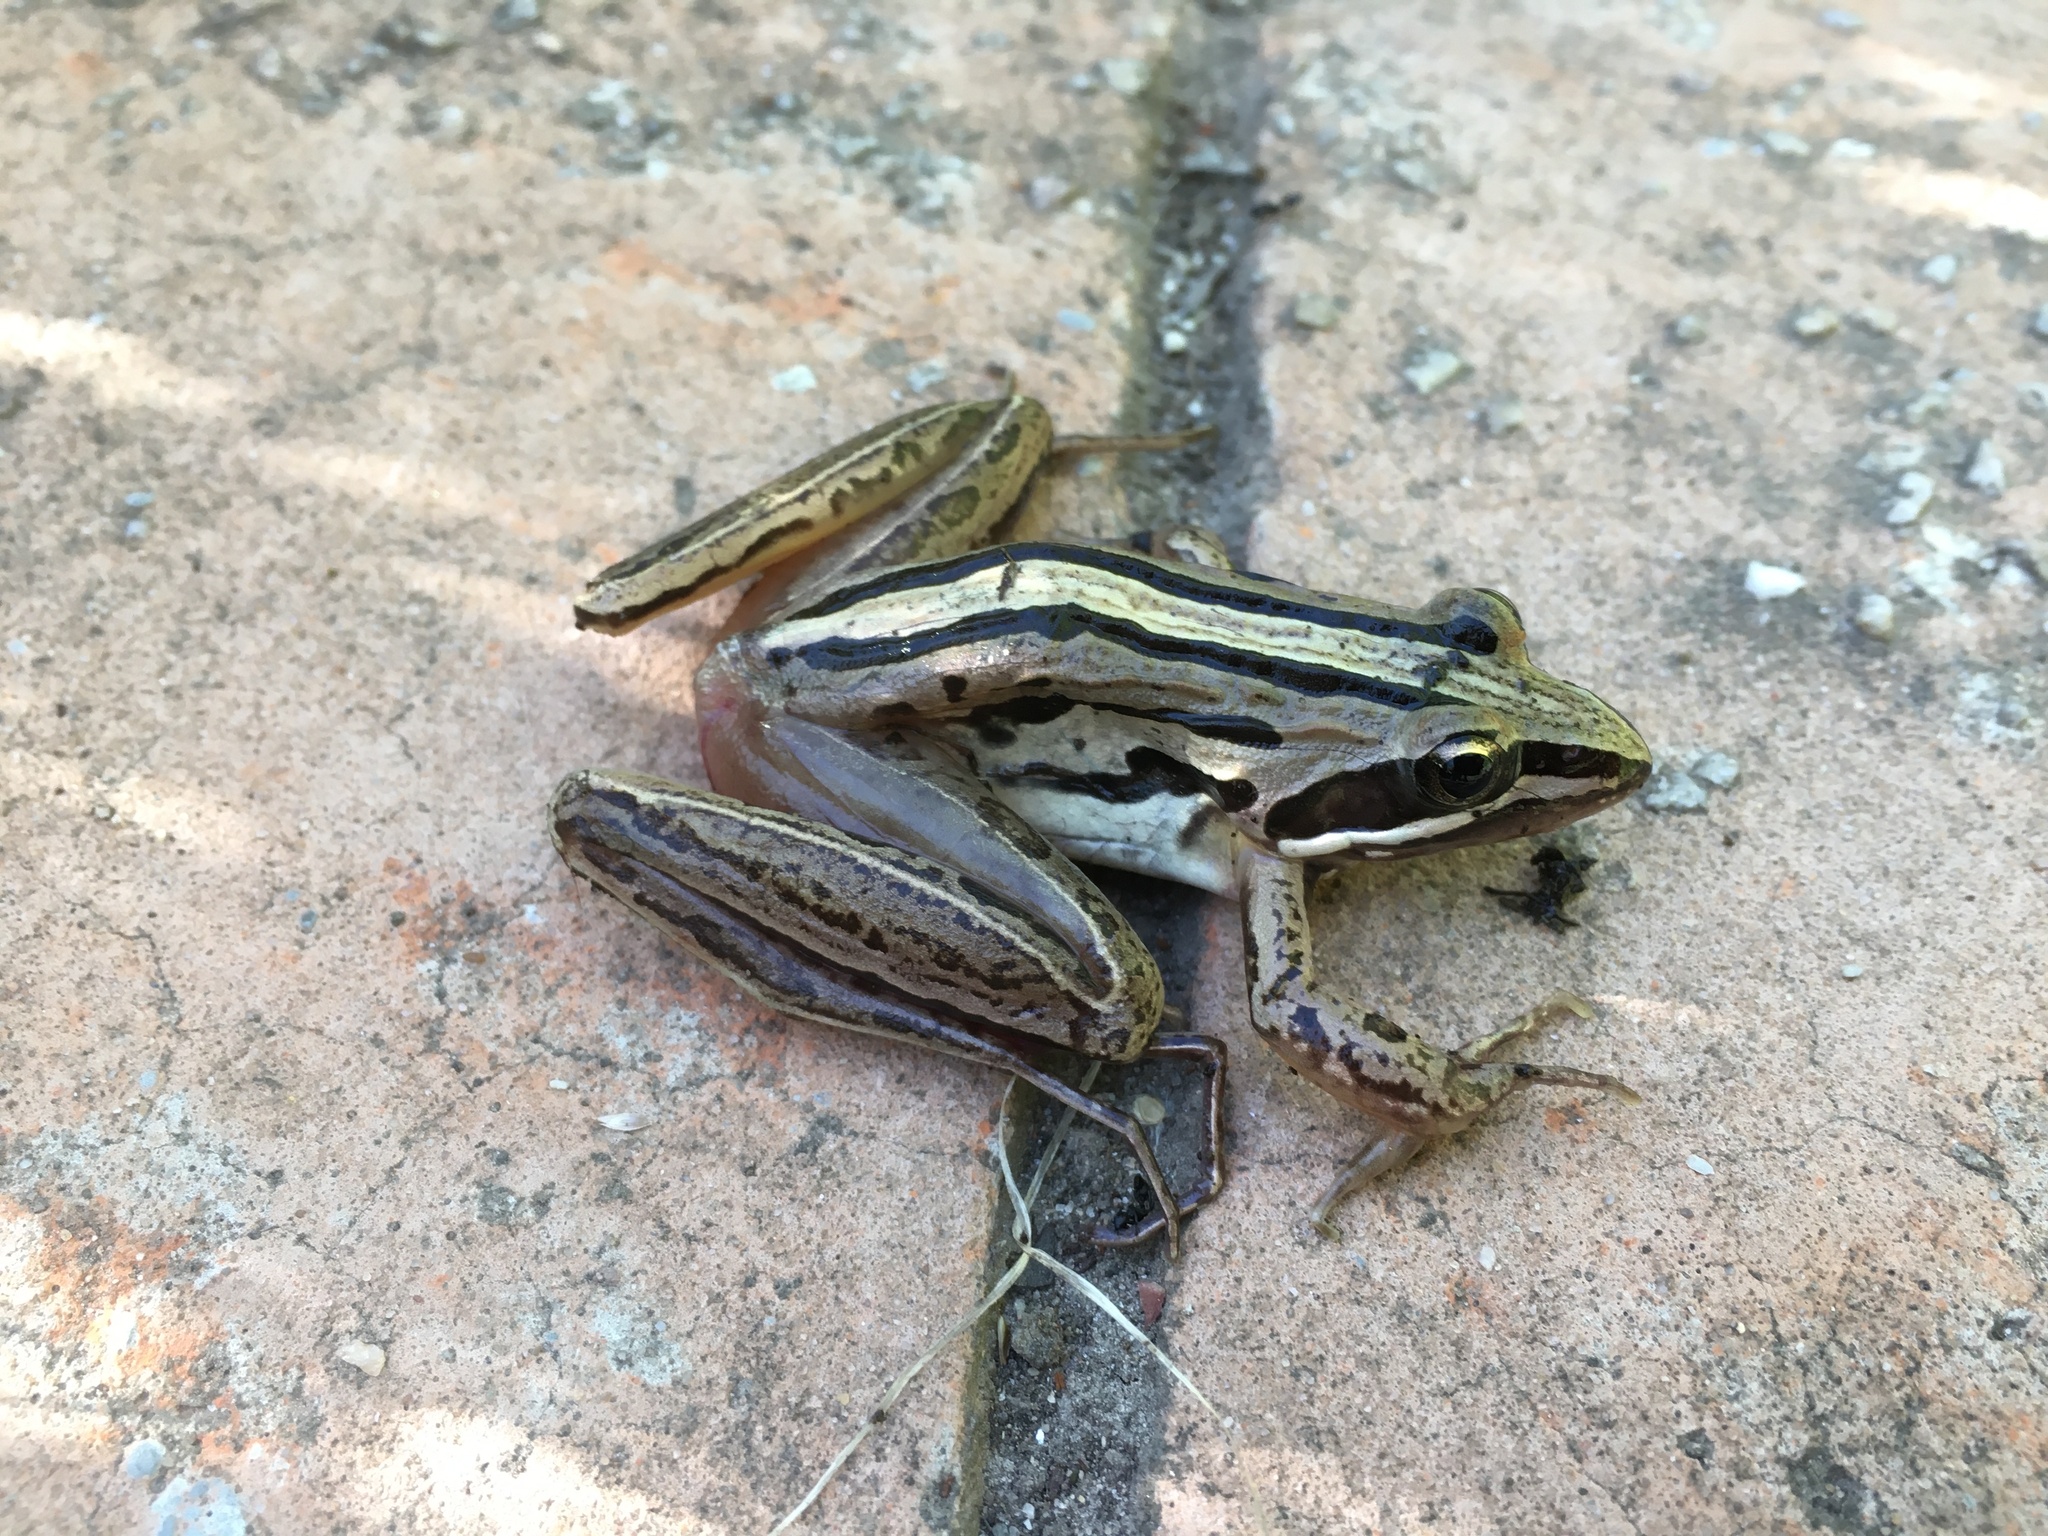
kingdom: Animalia
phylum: Chordata
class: Amphibia
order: Anura
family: Pyxicephalidae
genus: Strongylopus
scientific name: Strongylopus fasciatus
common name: Striped stream frog
